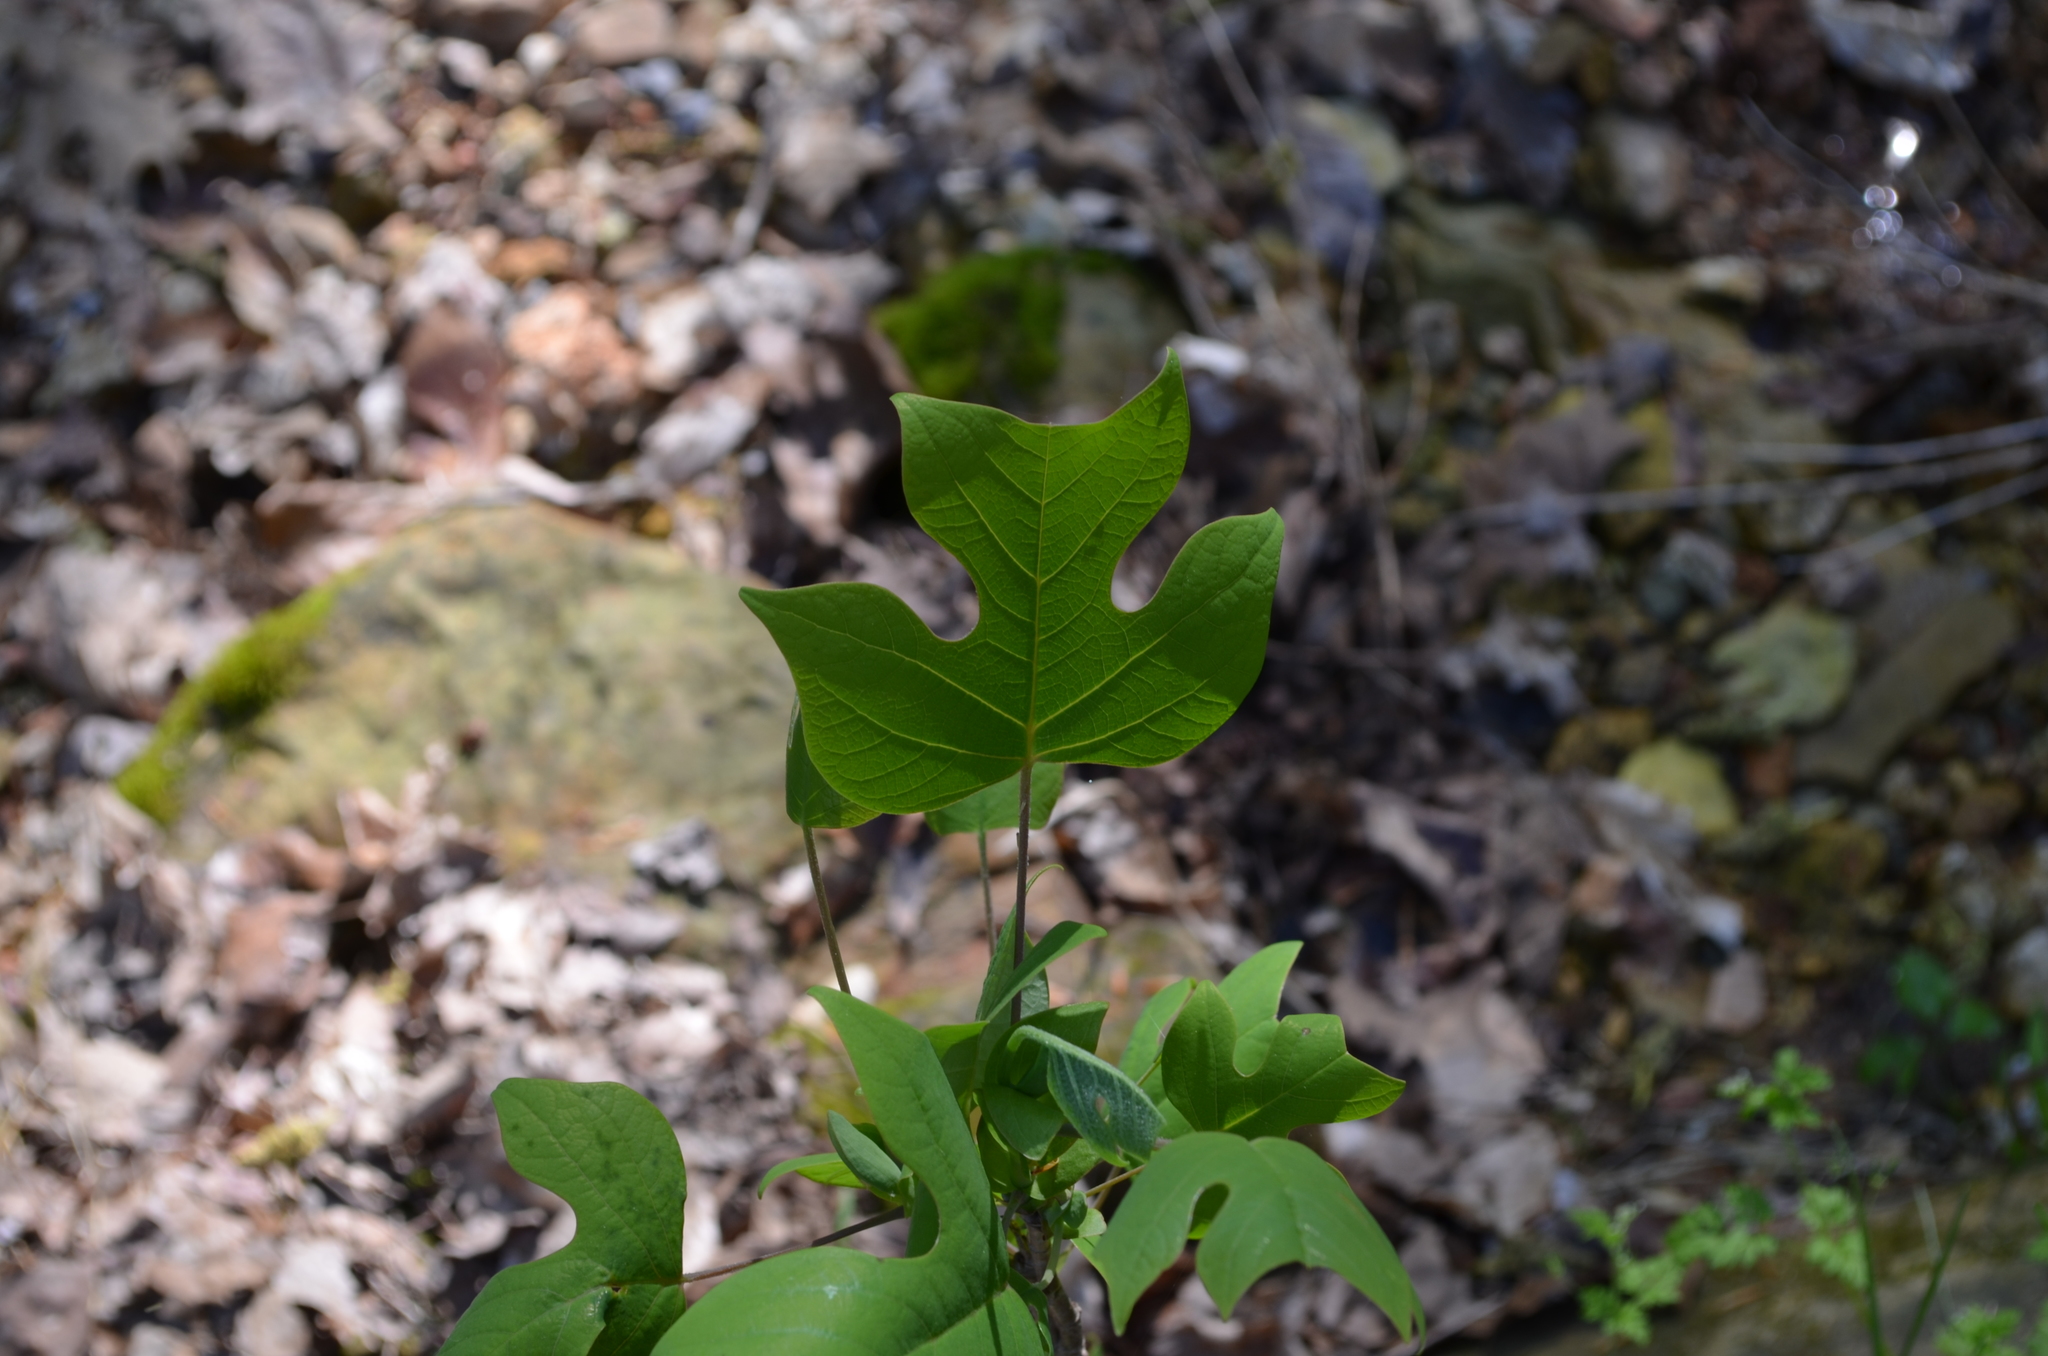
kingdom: Plantae
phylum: Tracheophyta
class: Magnoliopsida
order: Magnoliales
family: Magnoliaceae
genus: Liriodendron
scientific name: Liriodendron tulipifera
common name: Tulip tree
